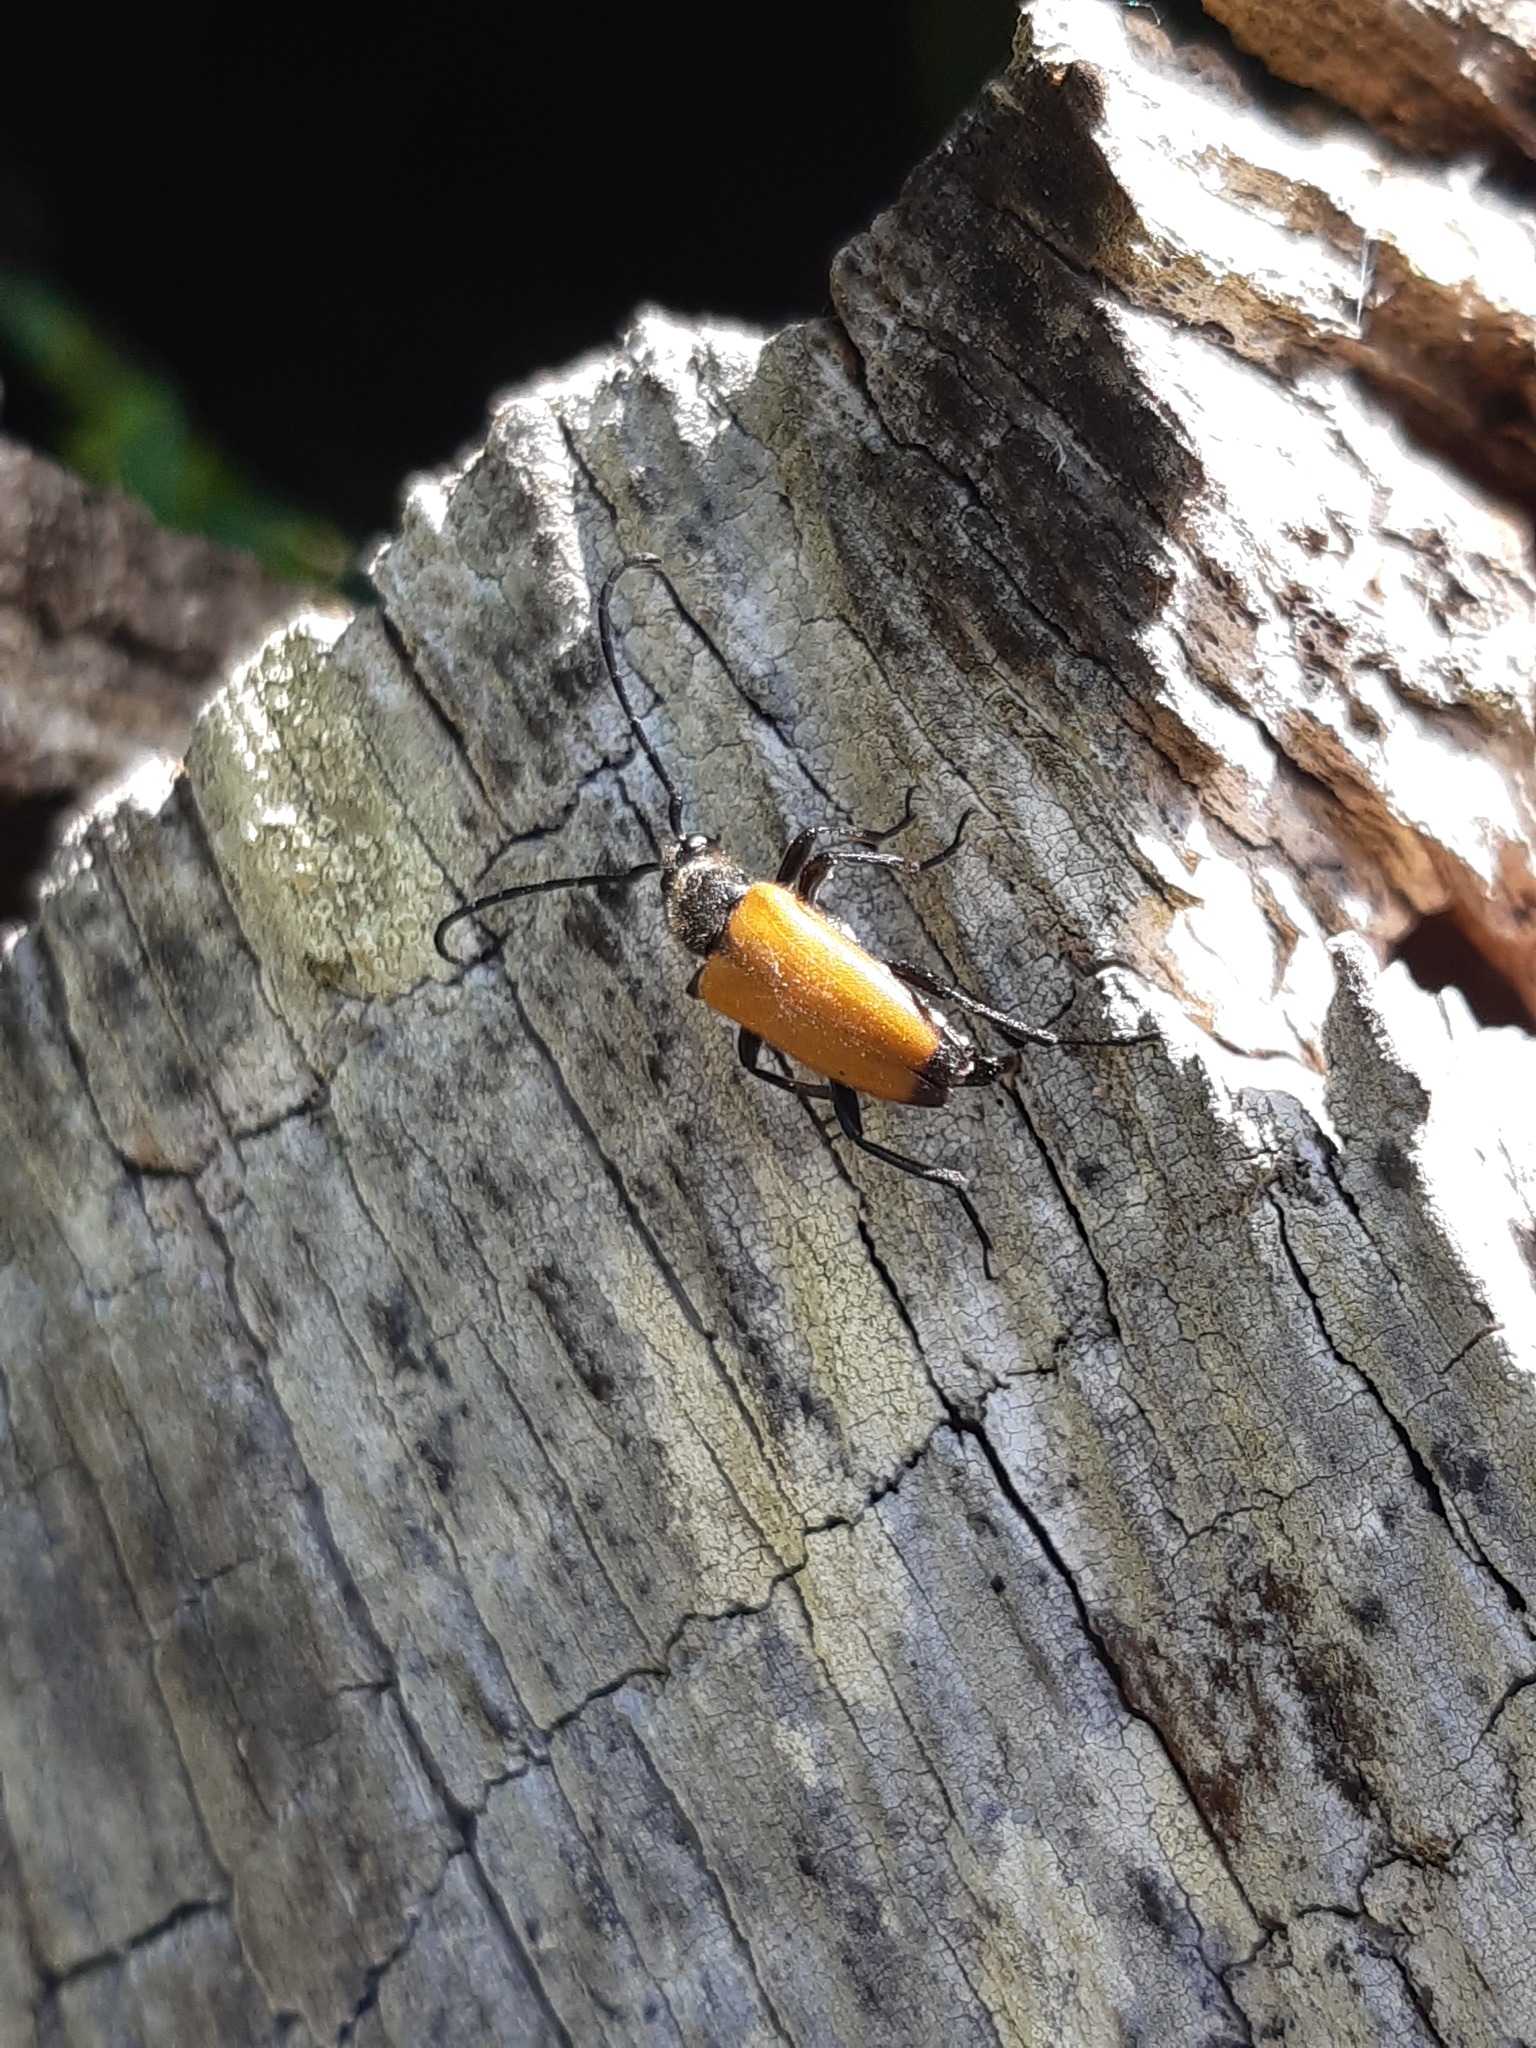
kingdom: Animalia
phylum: Arthropoda
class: Insecta
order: Coleoptera
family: Cerambycidae
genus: Paracorymbia
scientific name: Paracorymbia fulva
